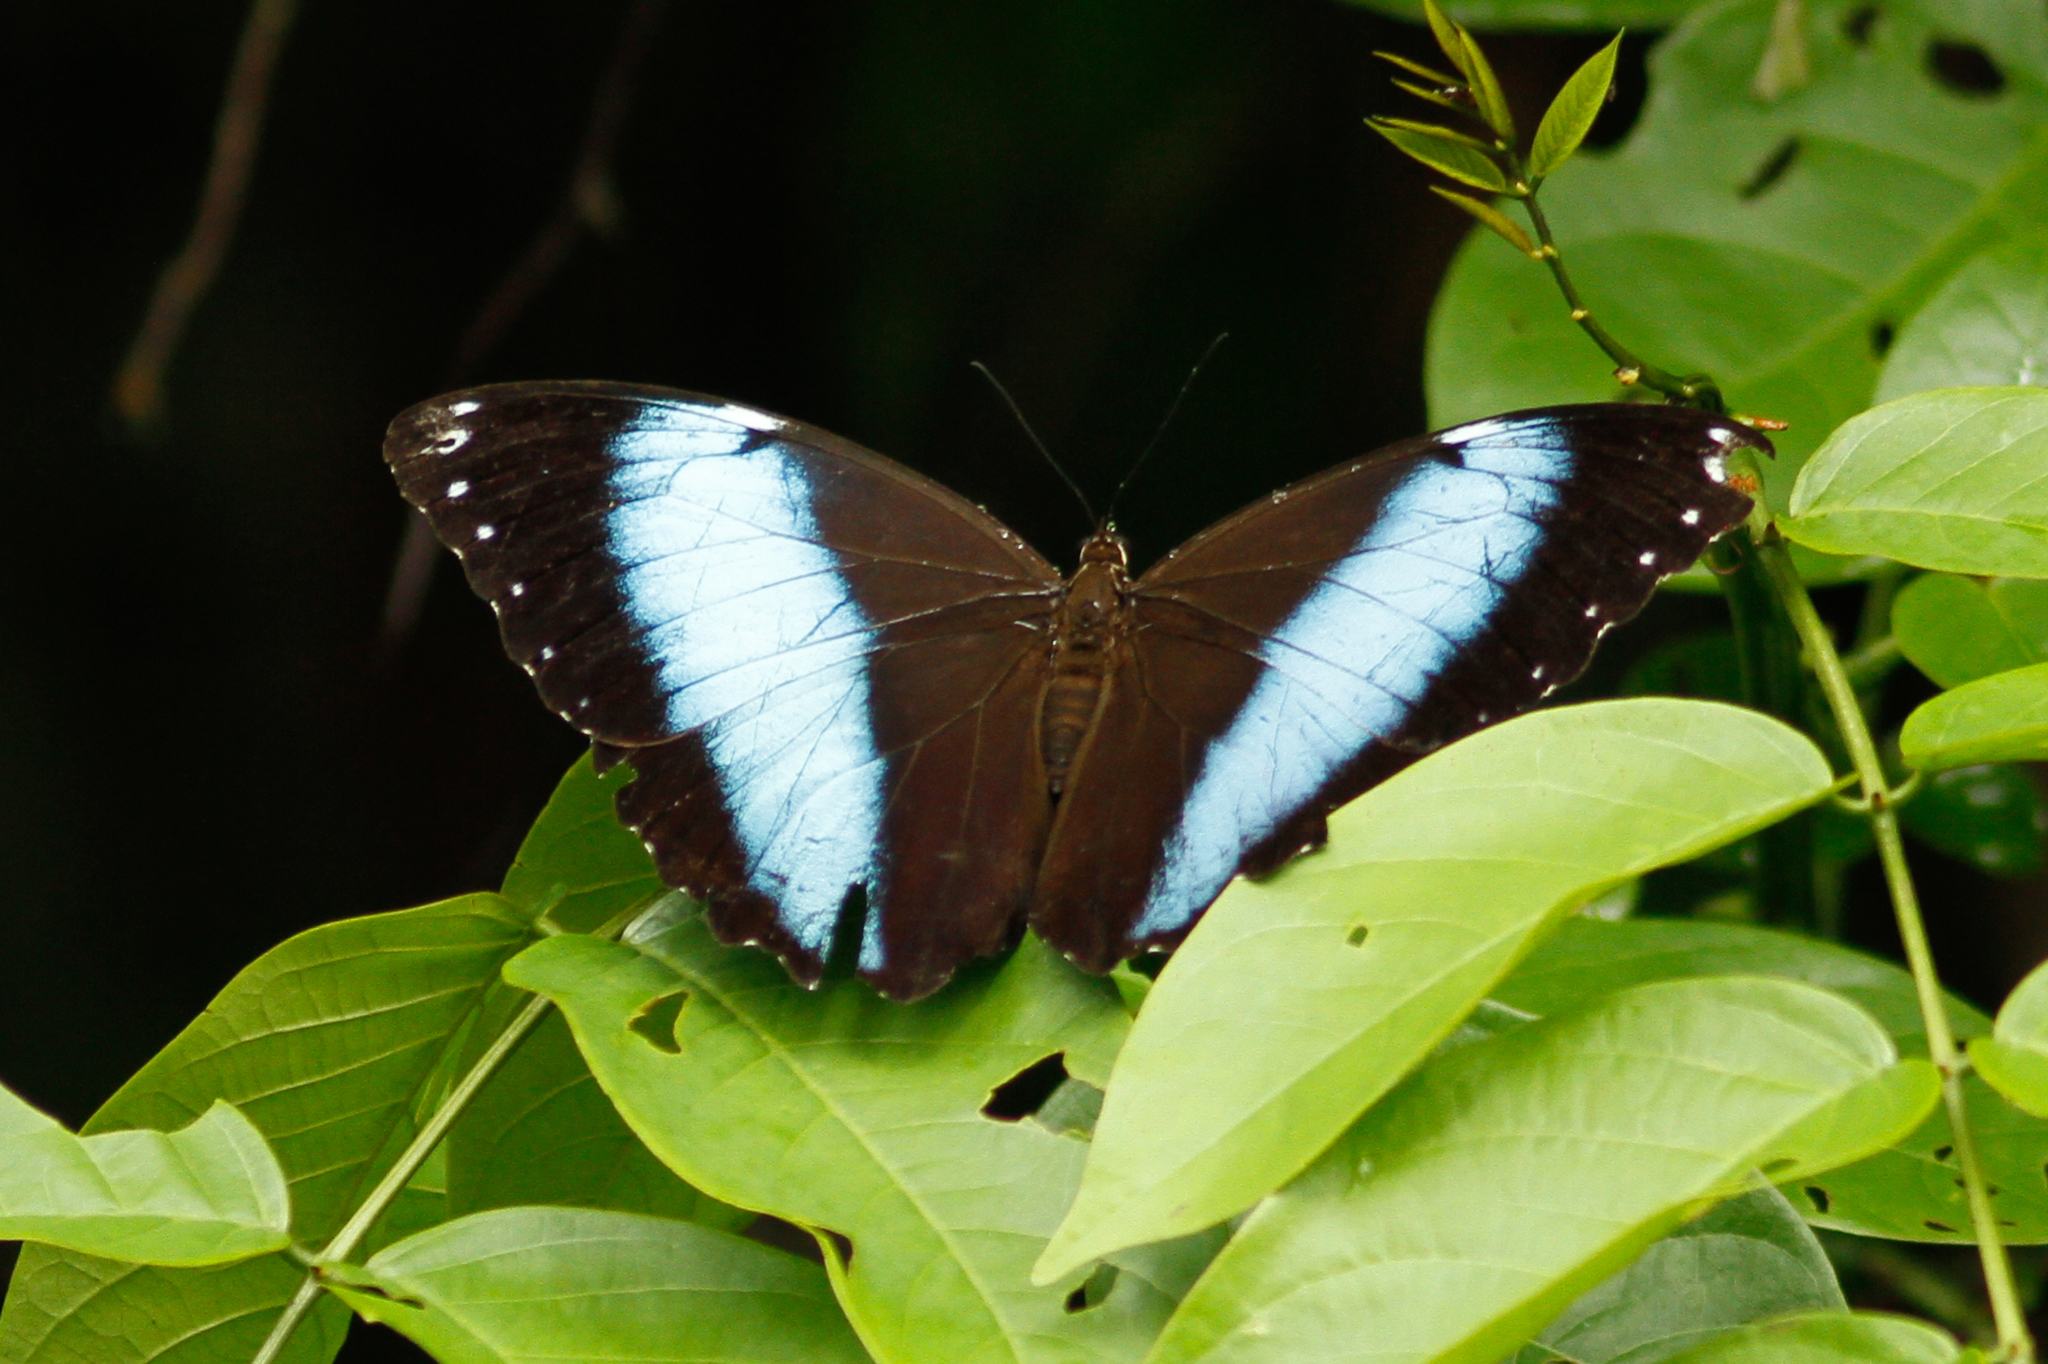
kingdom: Animalia
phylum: Arthropoda
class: Insecta
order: Lepidoptera
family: Nymphalidae
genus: Morpho
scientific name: Morpho achilles
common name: Achilles morpho
